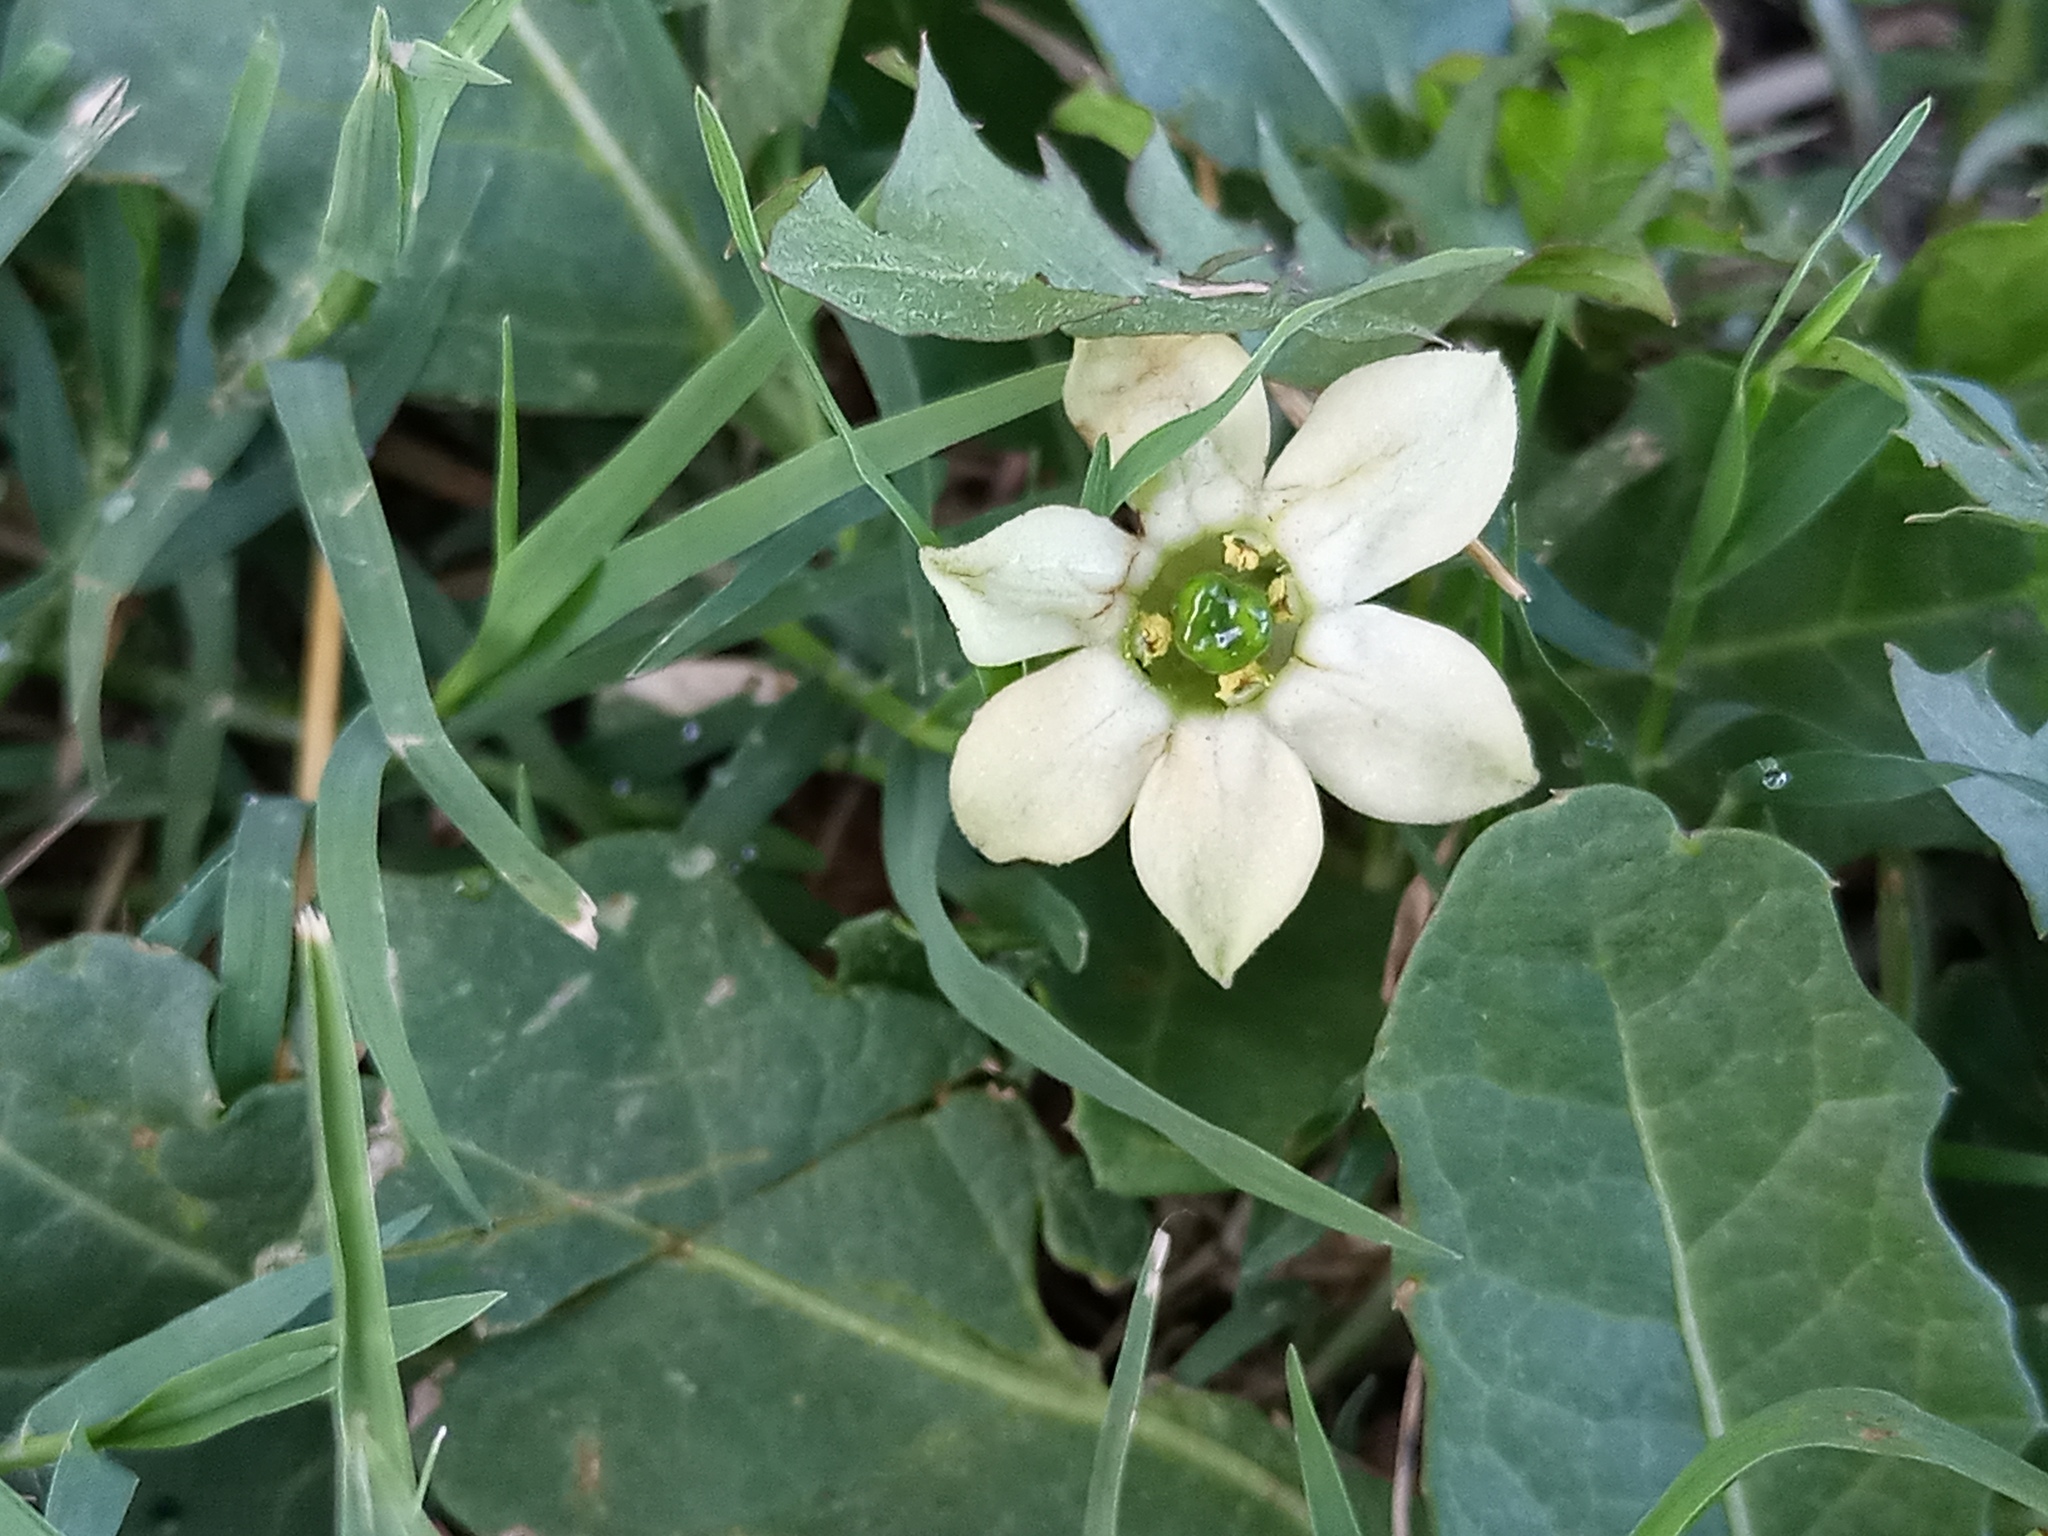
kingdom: Plantae
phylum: Tracheophyta
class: Magnoliopsida
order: Solanales
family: Solanaceae
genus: Jaborosa
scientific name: Jaborosa runcinata
